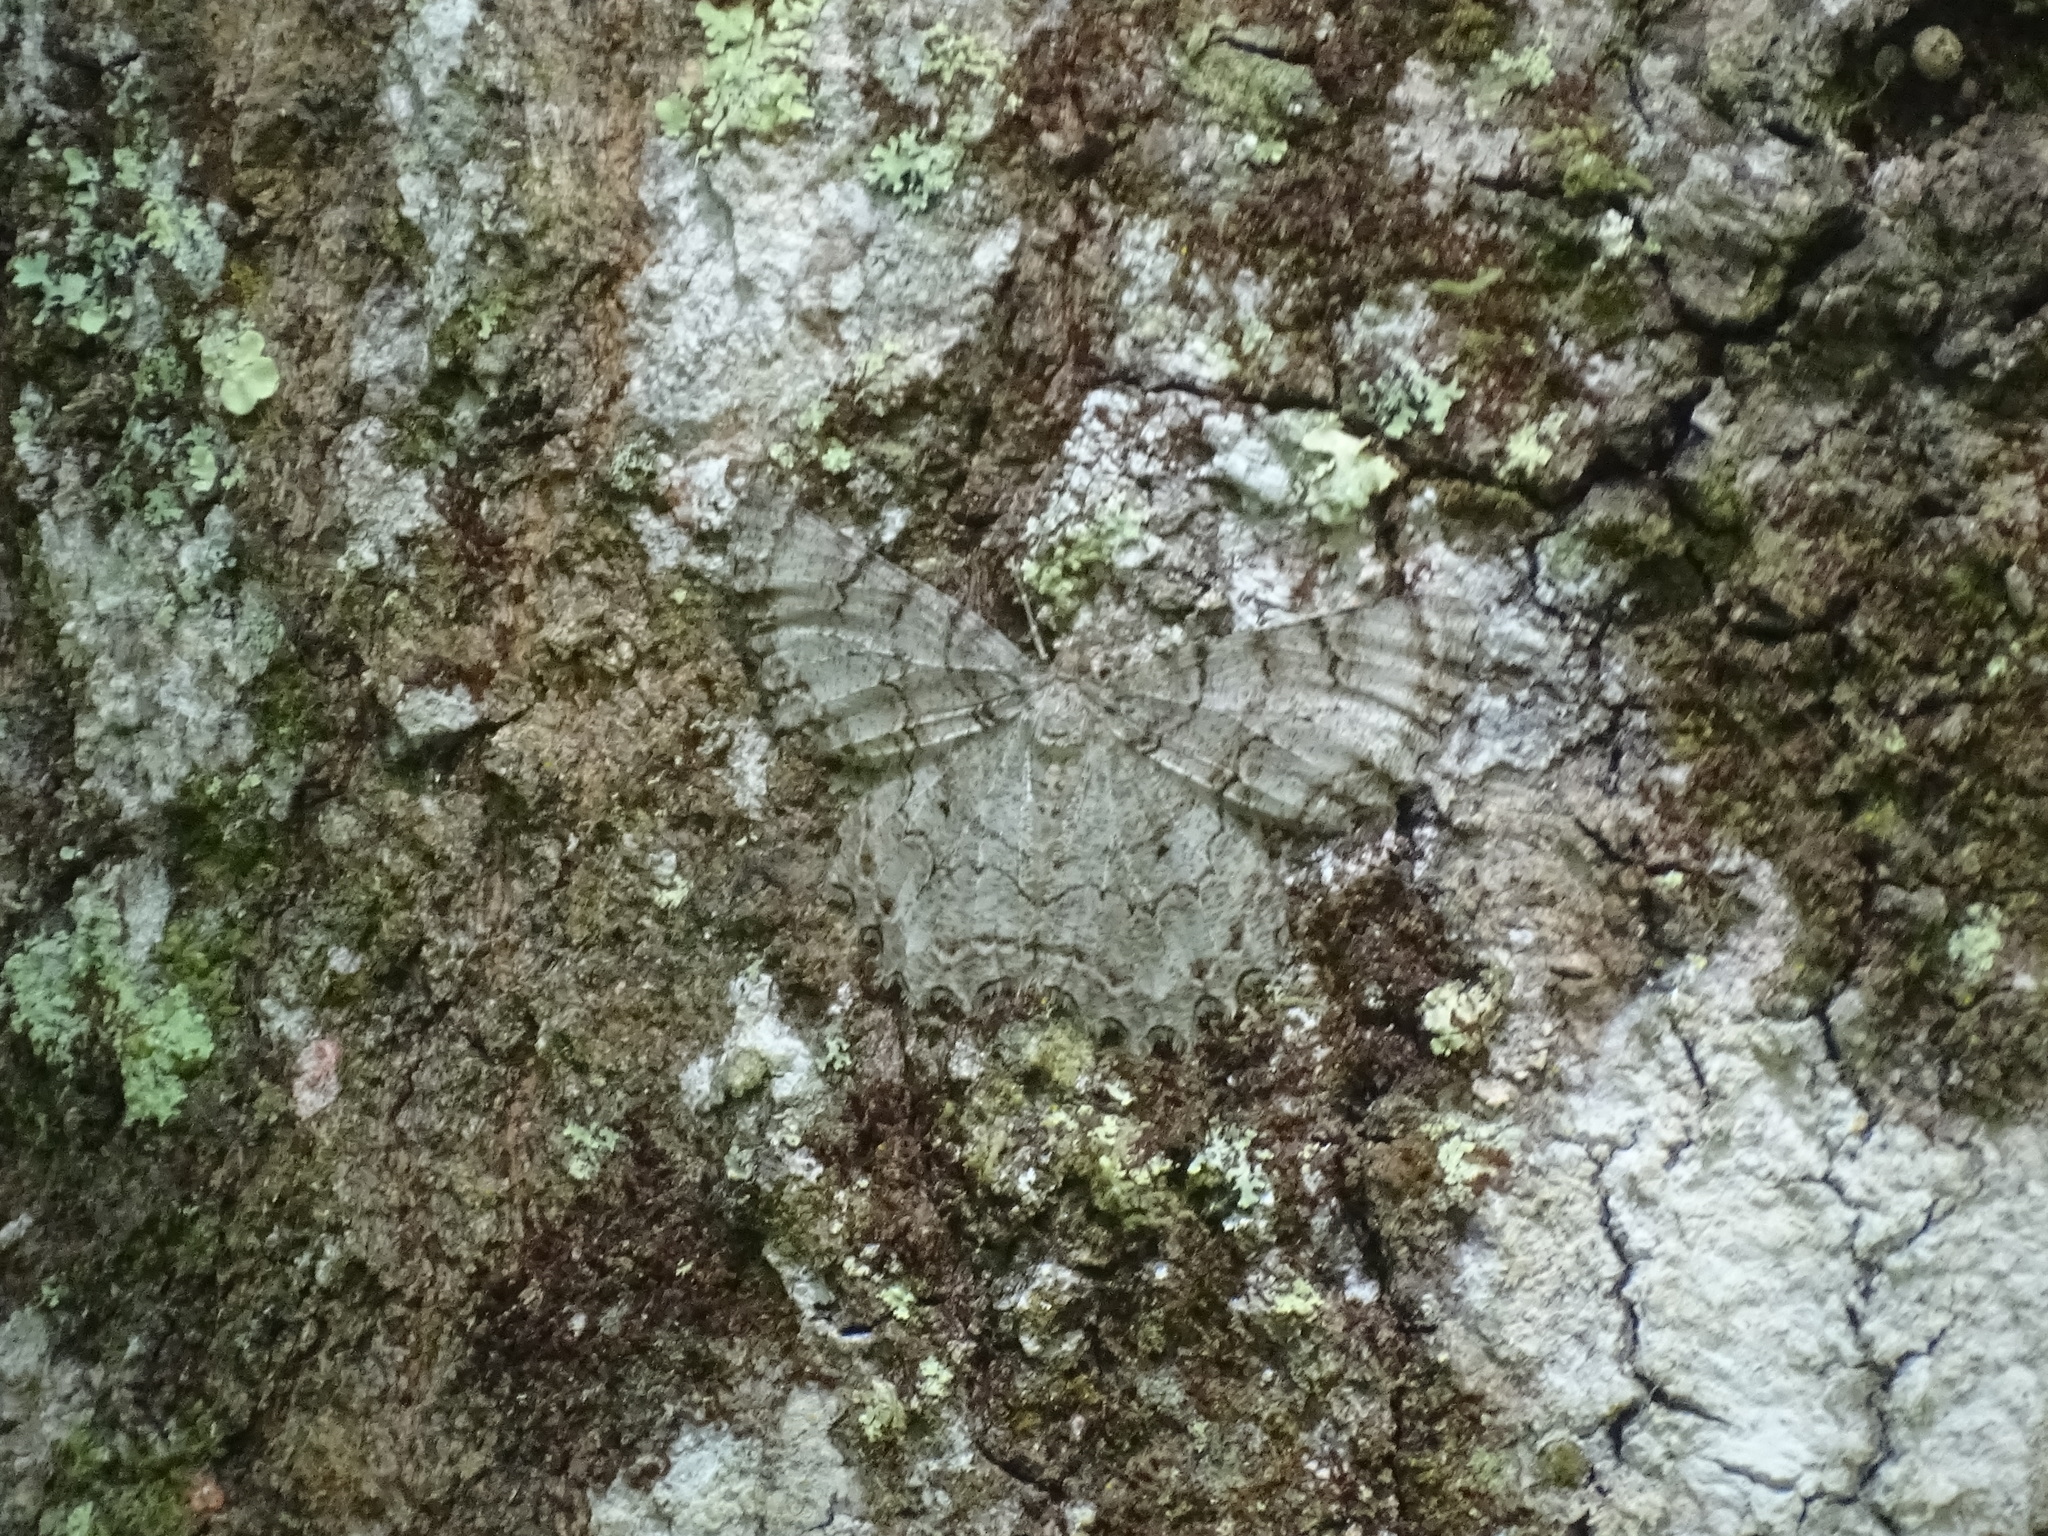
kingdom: Animalia
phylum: Arthropoda
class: Insecta
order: Lepidoptera
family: Geometridae
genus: Epimecis
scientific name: Epimecis hortaria
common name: Tulip-tree beauty
